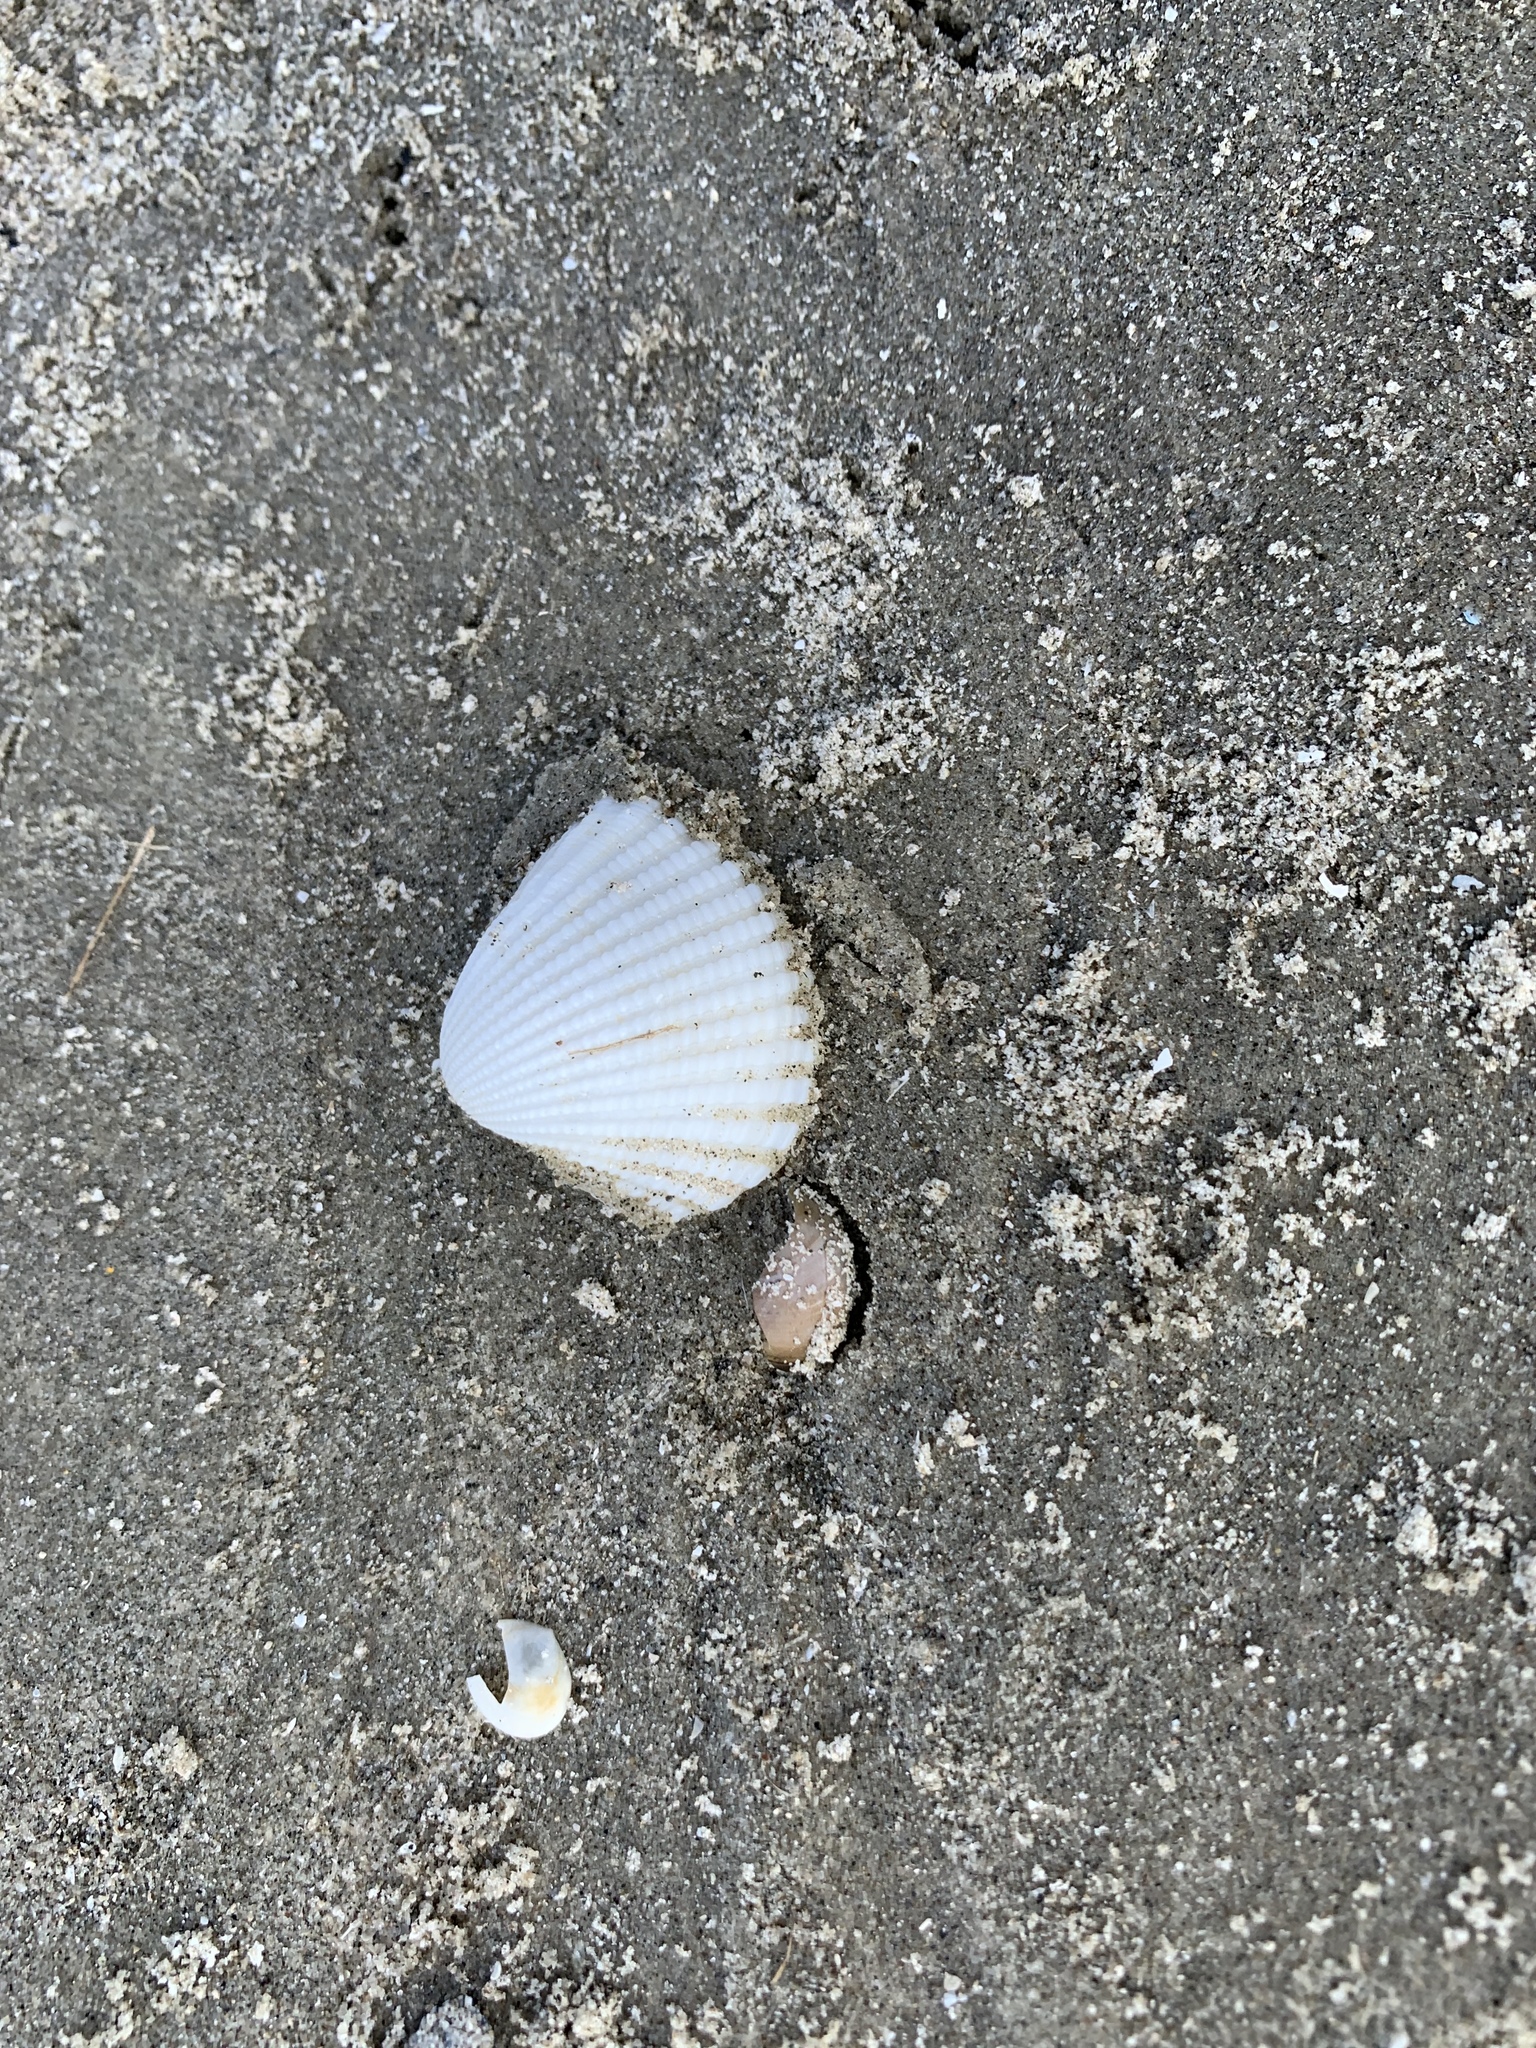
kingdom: Animalia
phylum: Mollusca
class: Bivalvia
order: Arcida
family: Arcidae
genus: Anadara
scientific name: Anadara brasiliana
